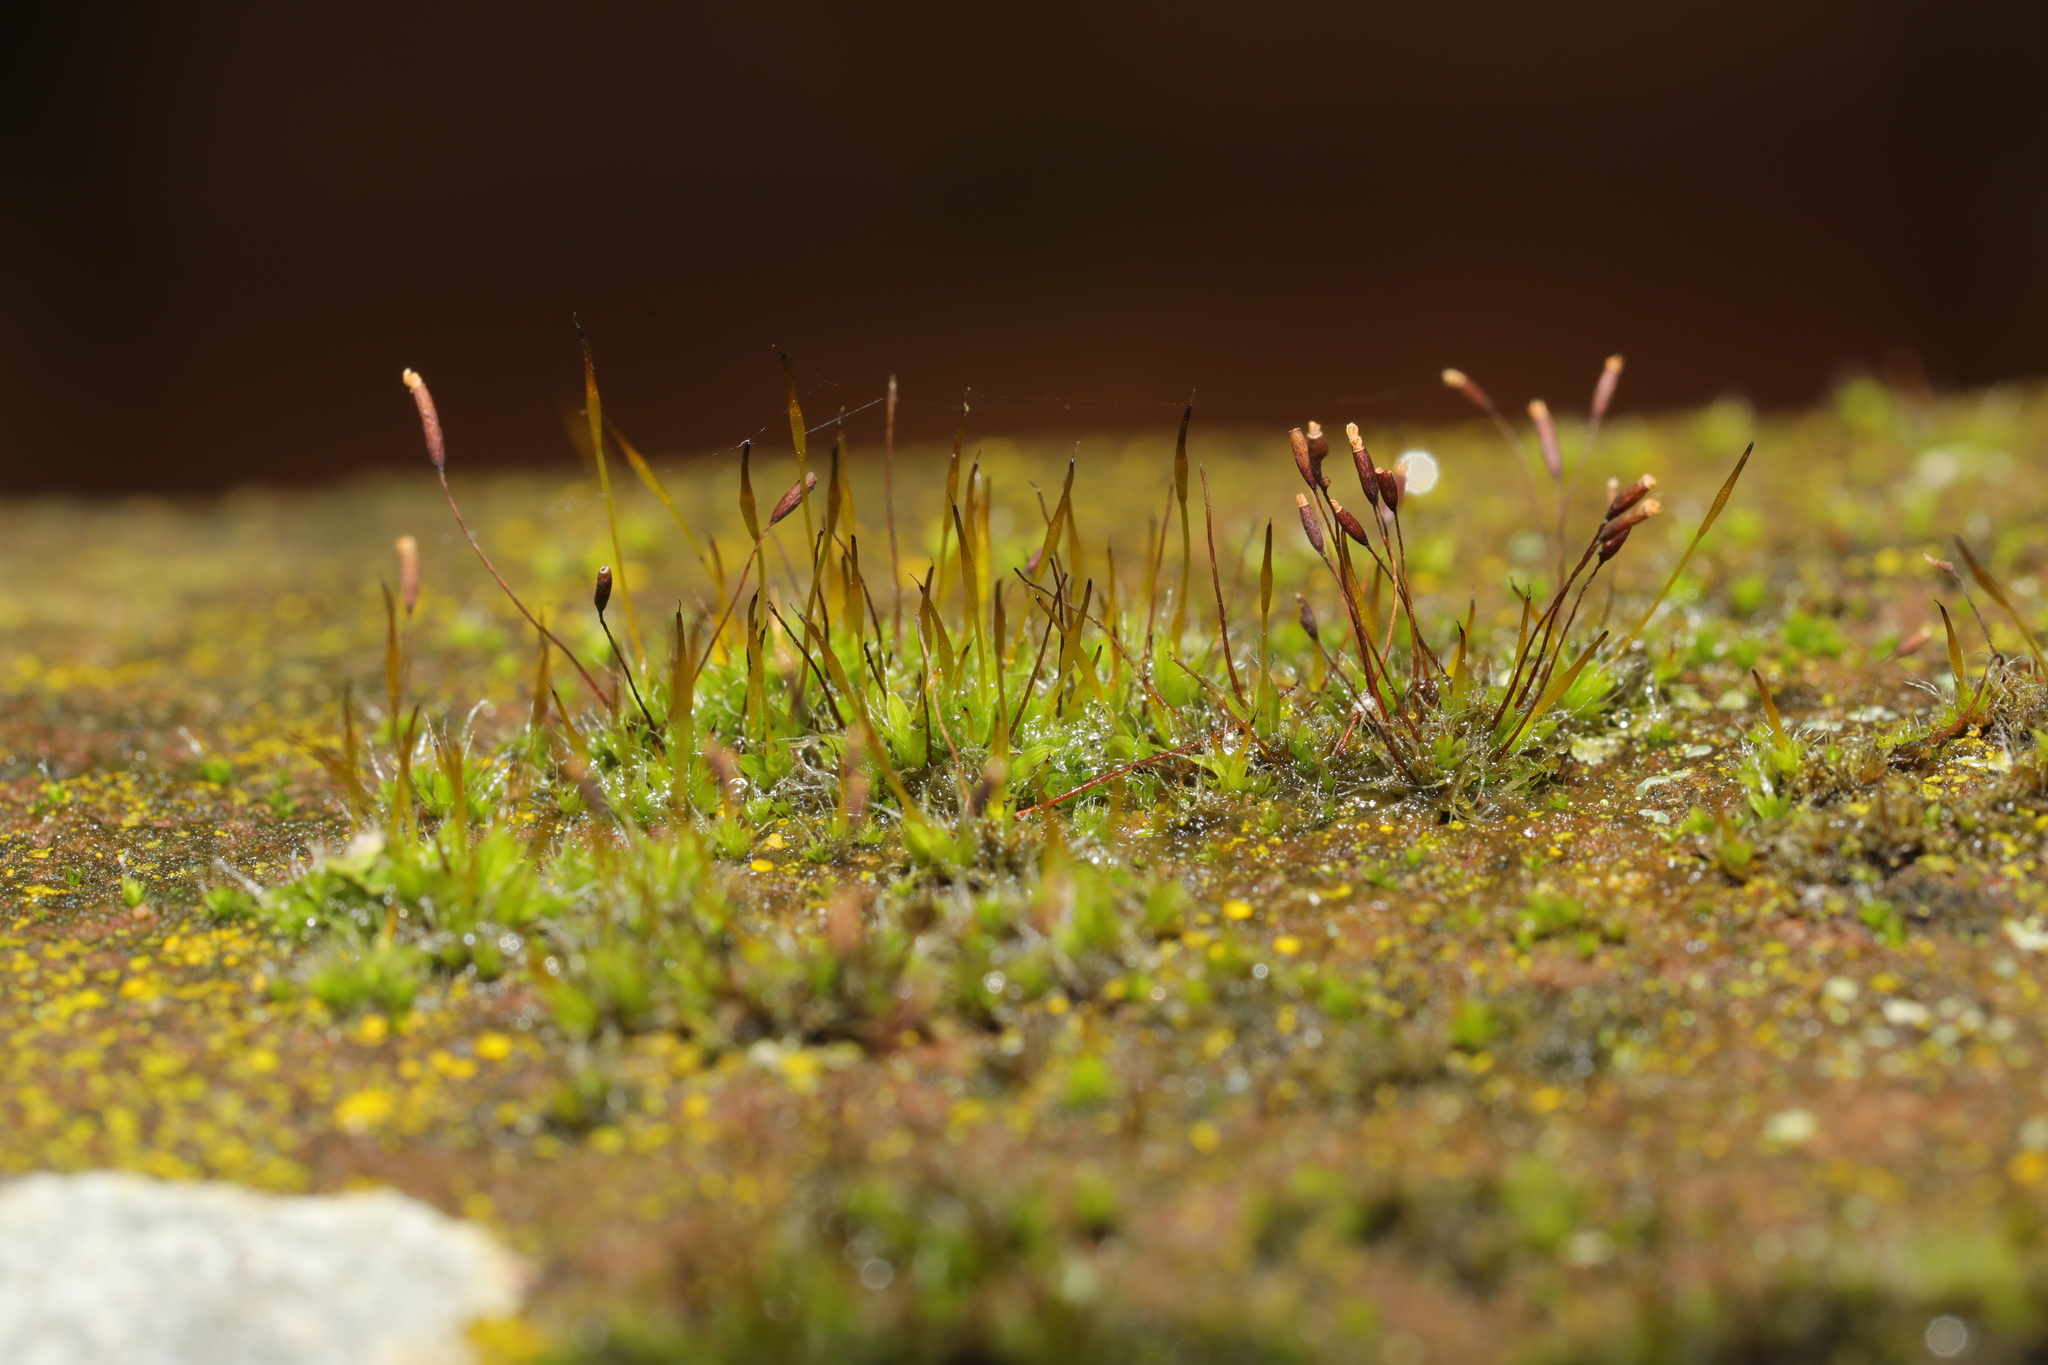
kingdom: Plantae
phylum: Bryophyta
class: Bryopsida
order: Pottiales
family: Pottiaceae
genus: Tortula
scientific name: Tortula muralis
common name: Wall screw-moss
